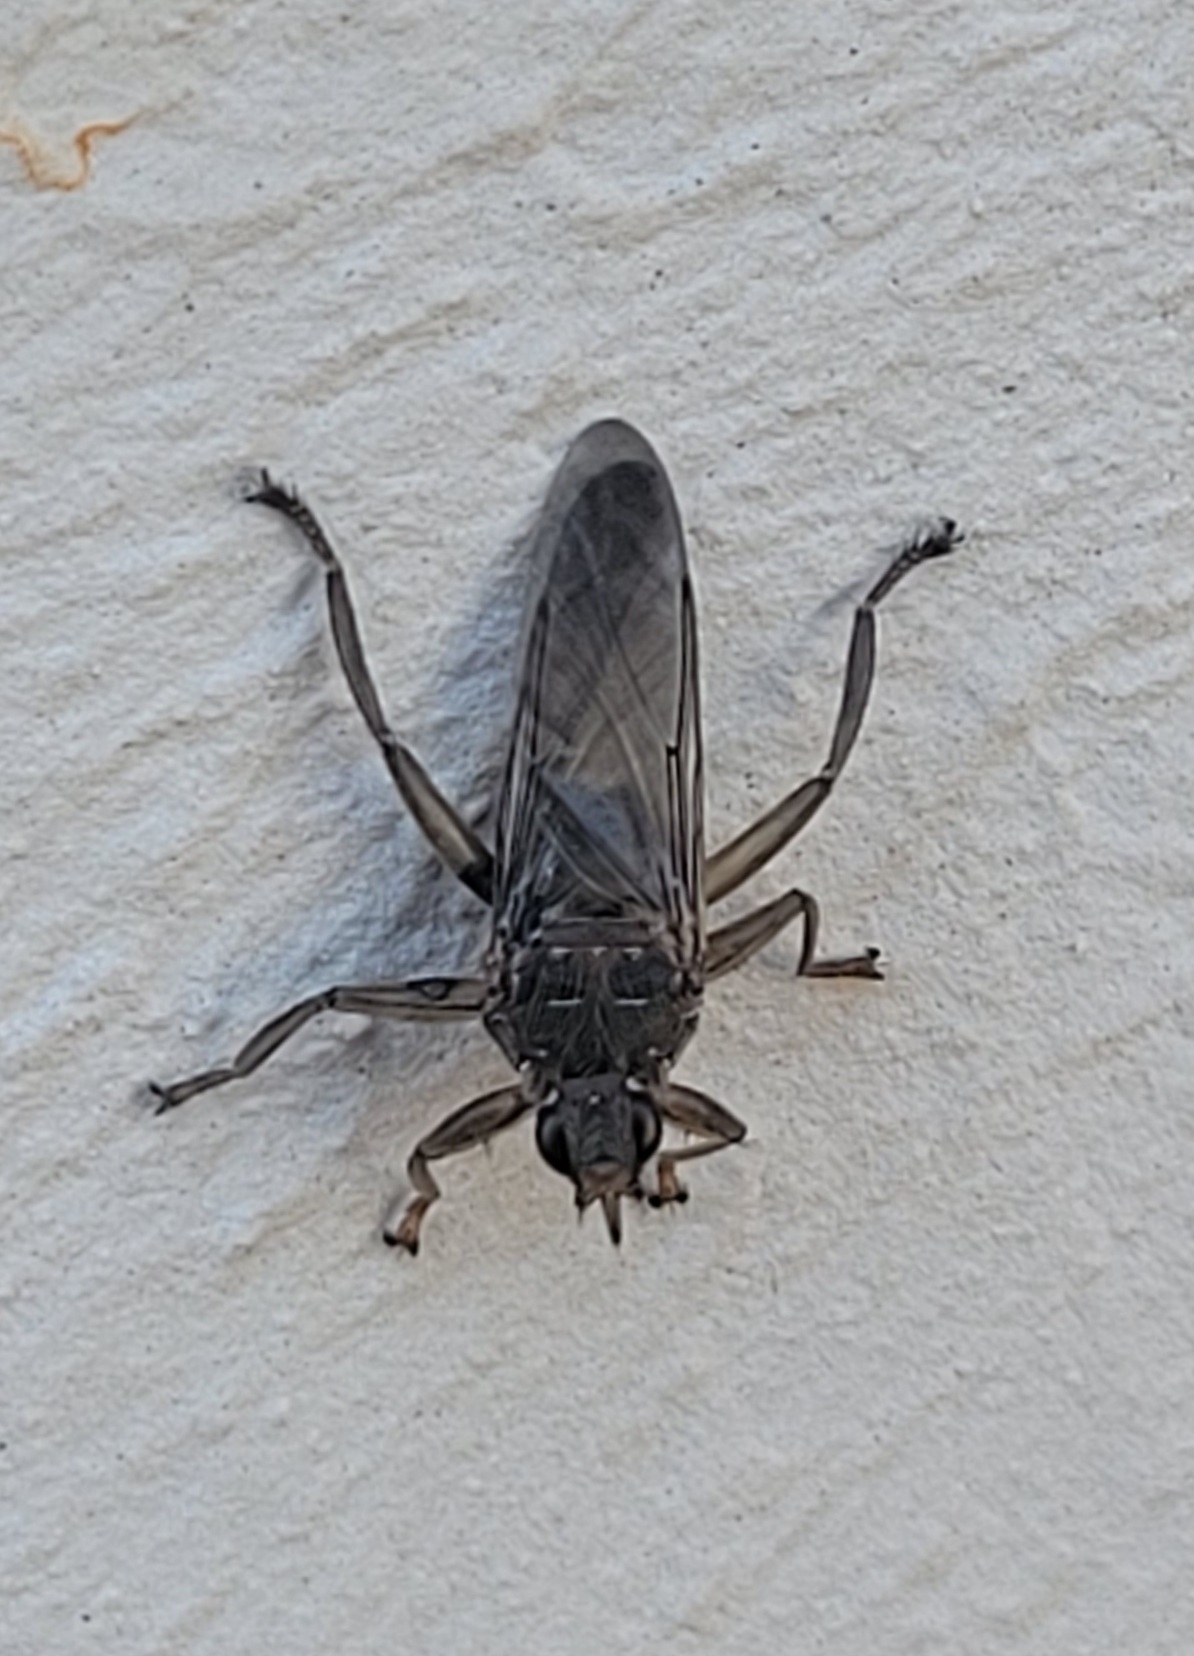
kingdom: Animalia
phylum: Arthropoda
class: Insecta
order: Diptera
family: Hippoboscidae
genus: Pseudolynchia
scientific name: Pseudolynchia canariensis
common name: Louse fly
